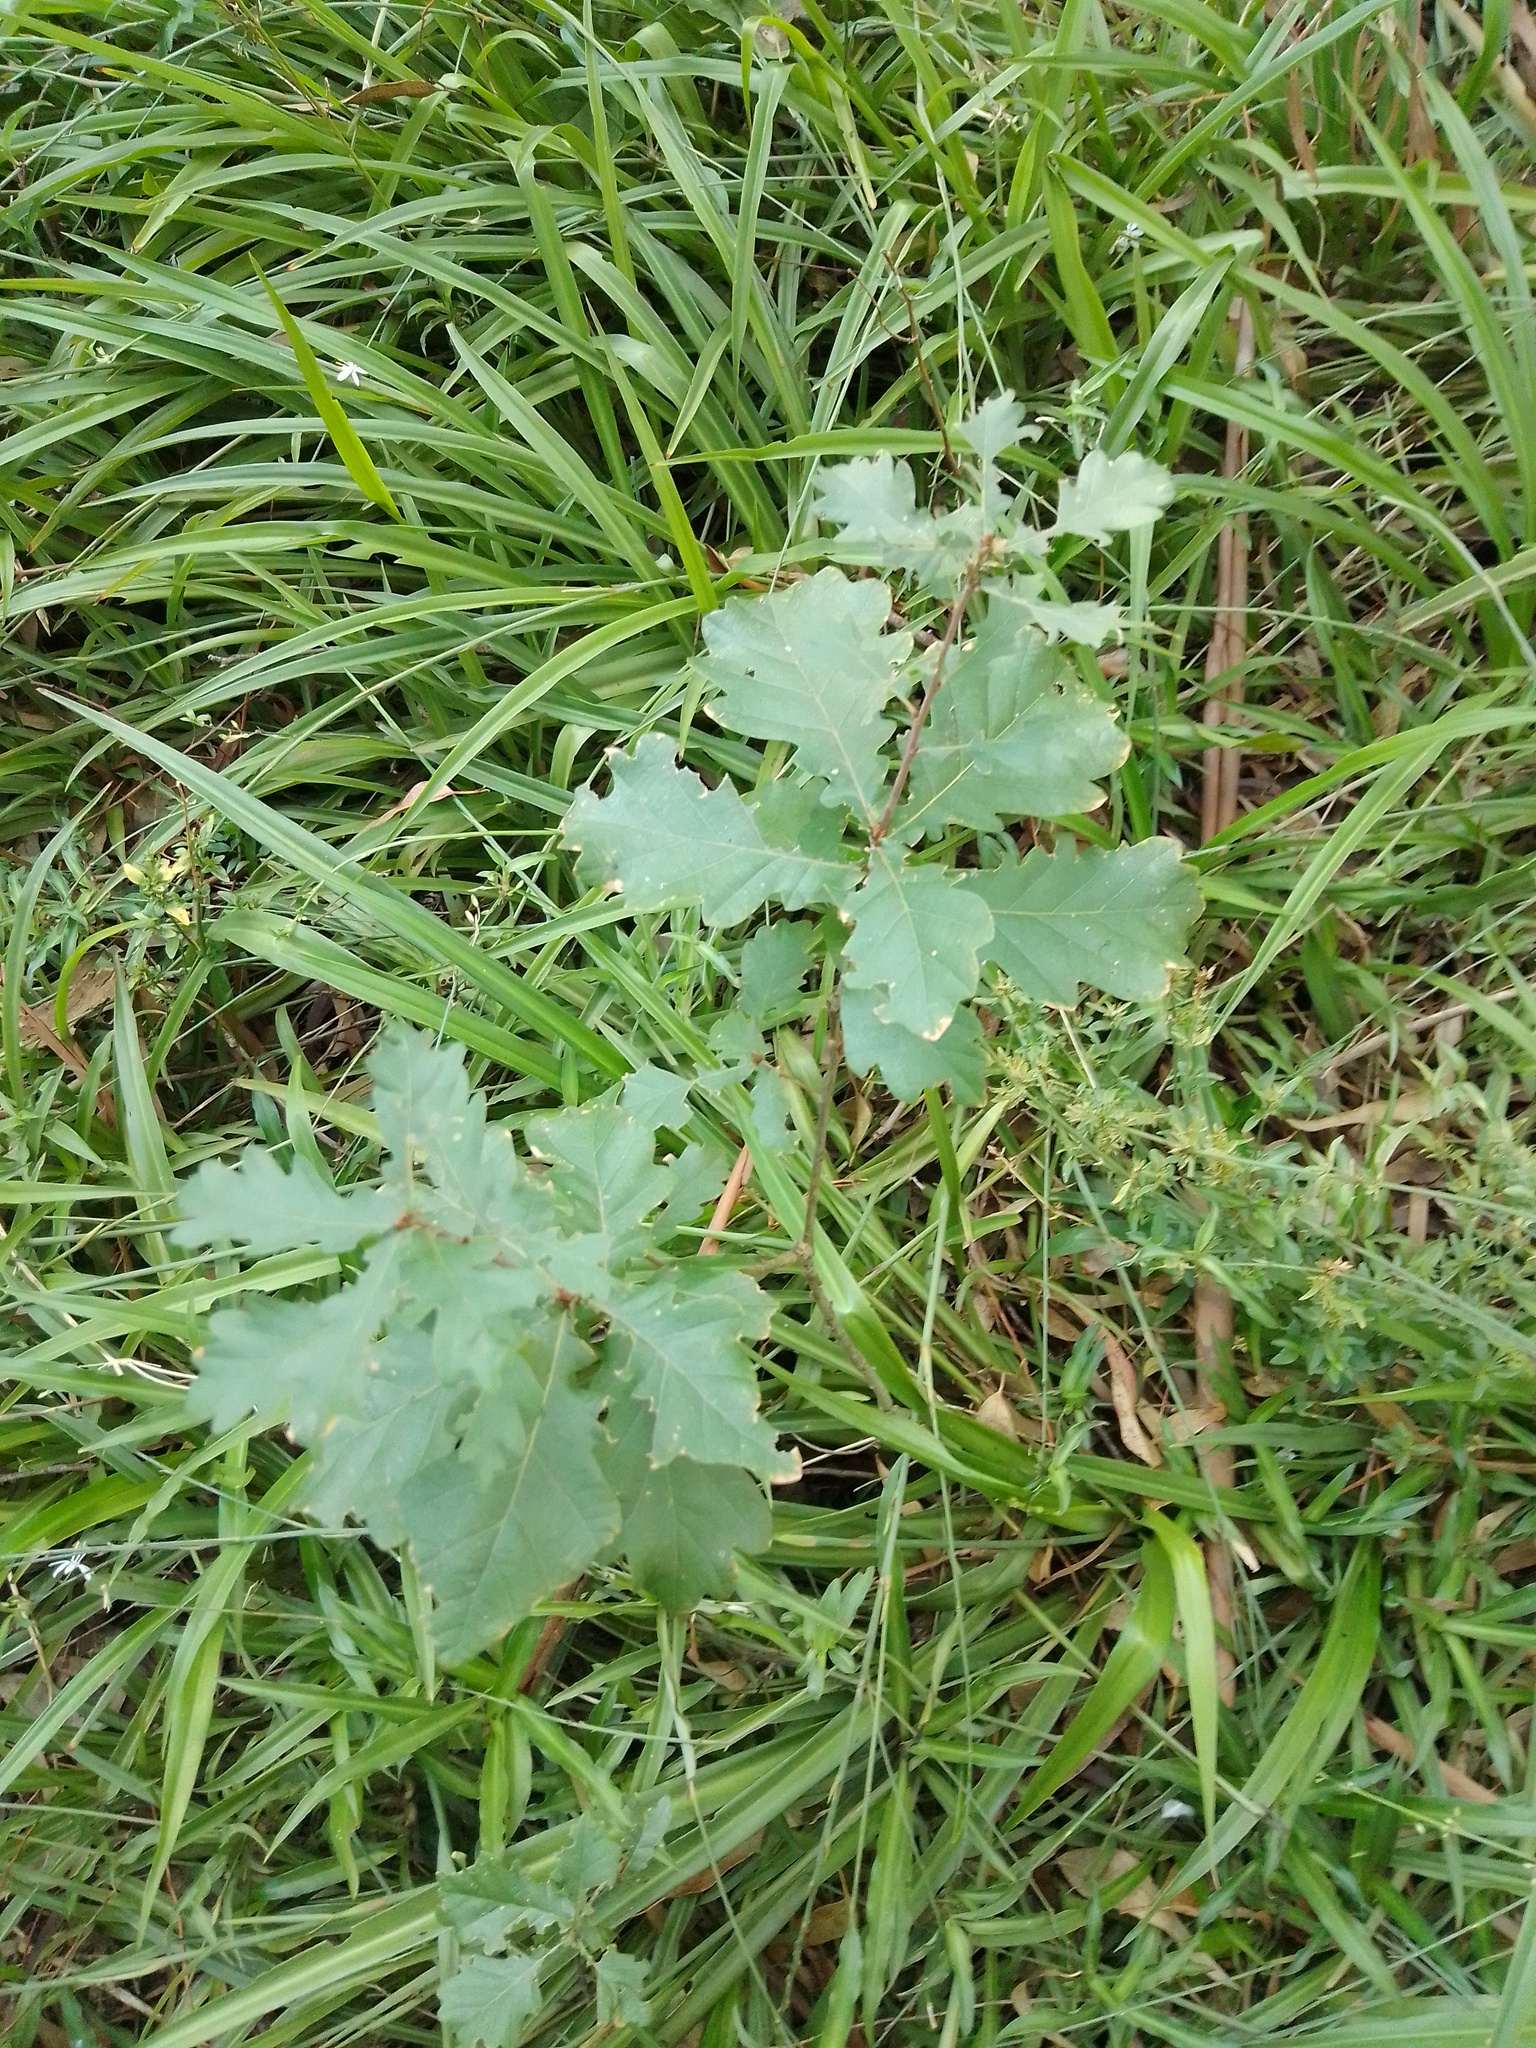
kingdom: Plantae
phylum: Tracheophyta
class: Magnoliopsida
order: Fagales
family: Fagaceae
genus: Quercus
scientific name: Quercus robur
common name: Pedunculate oak
